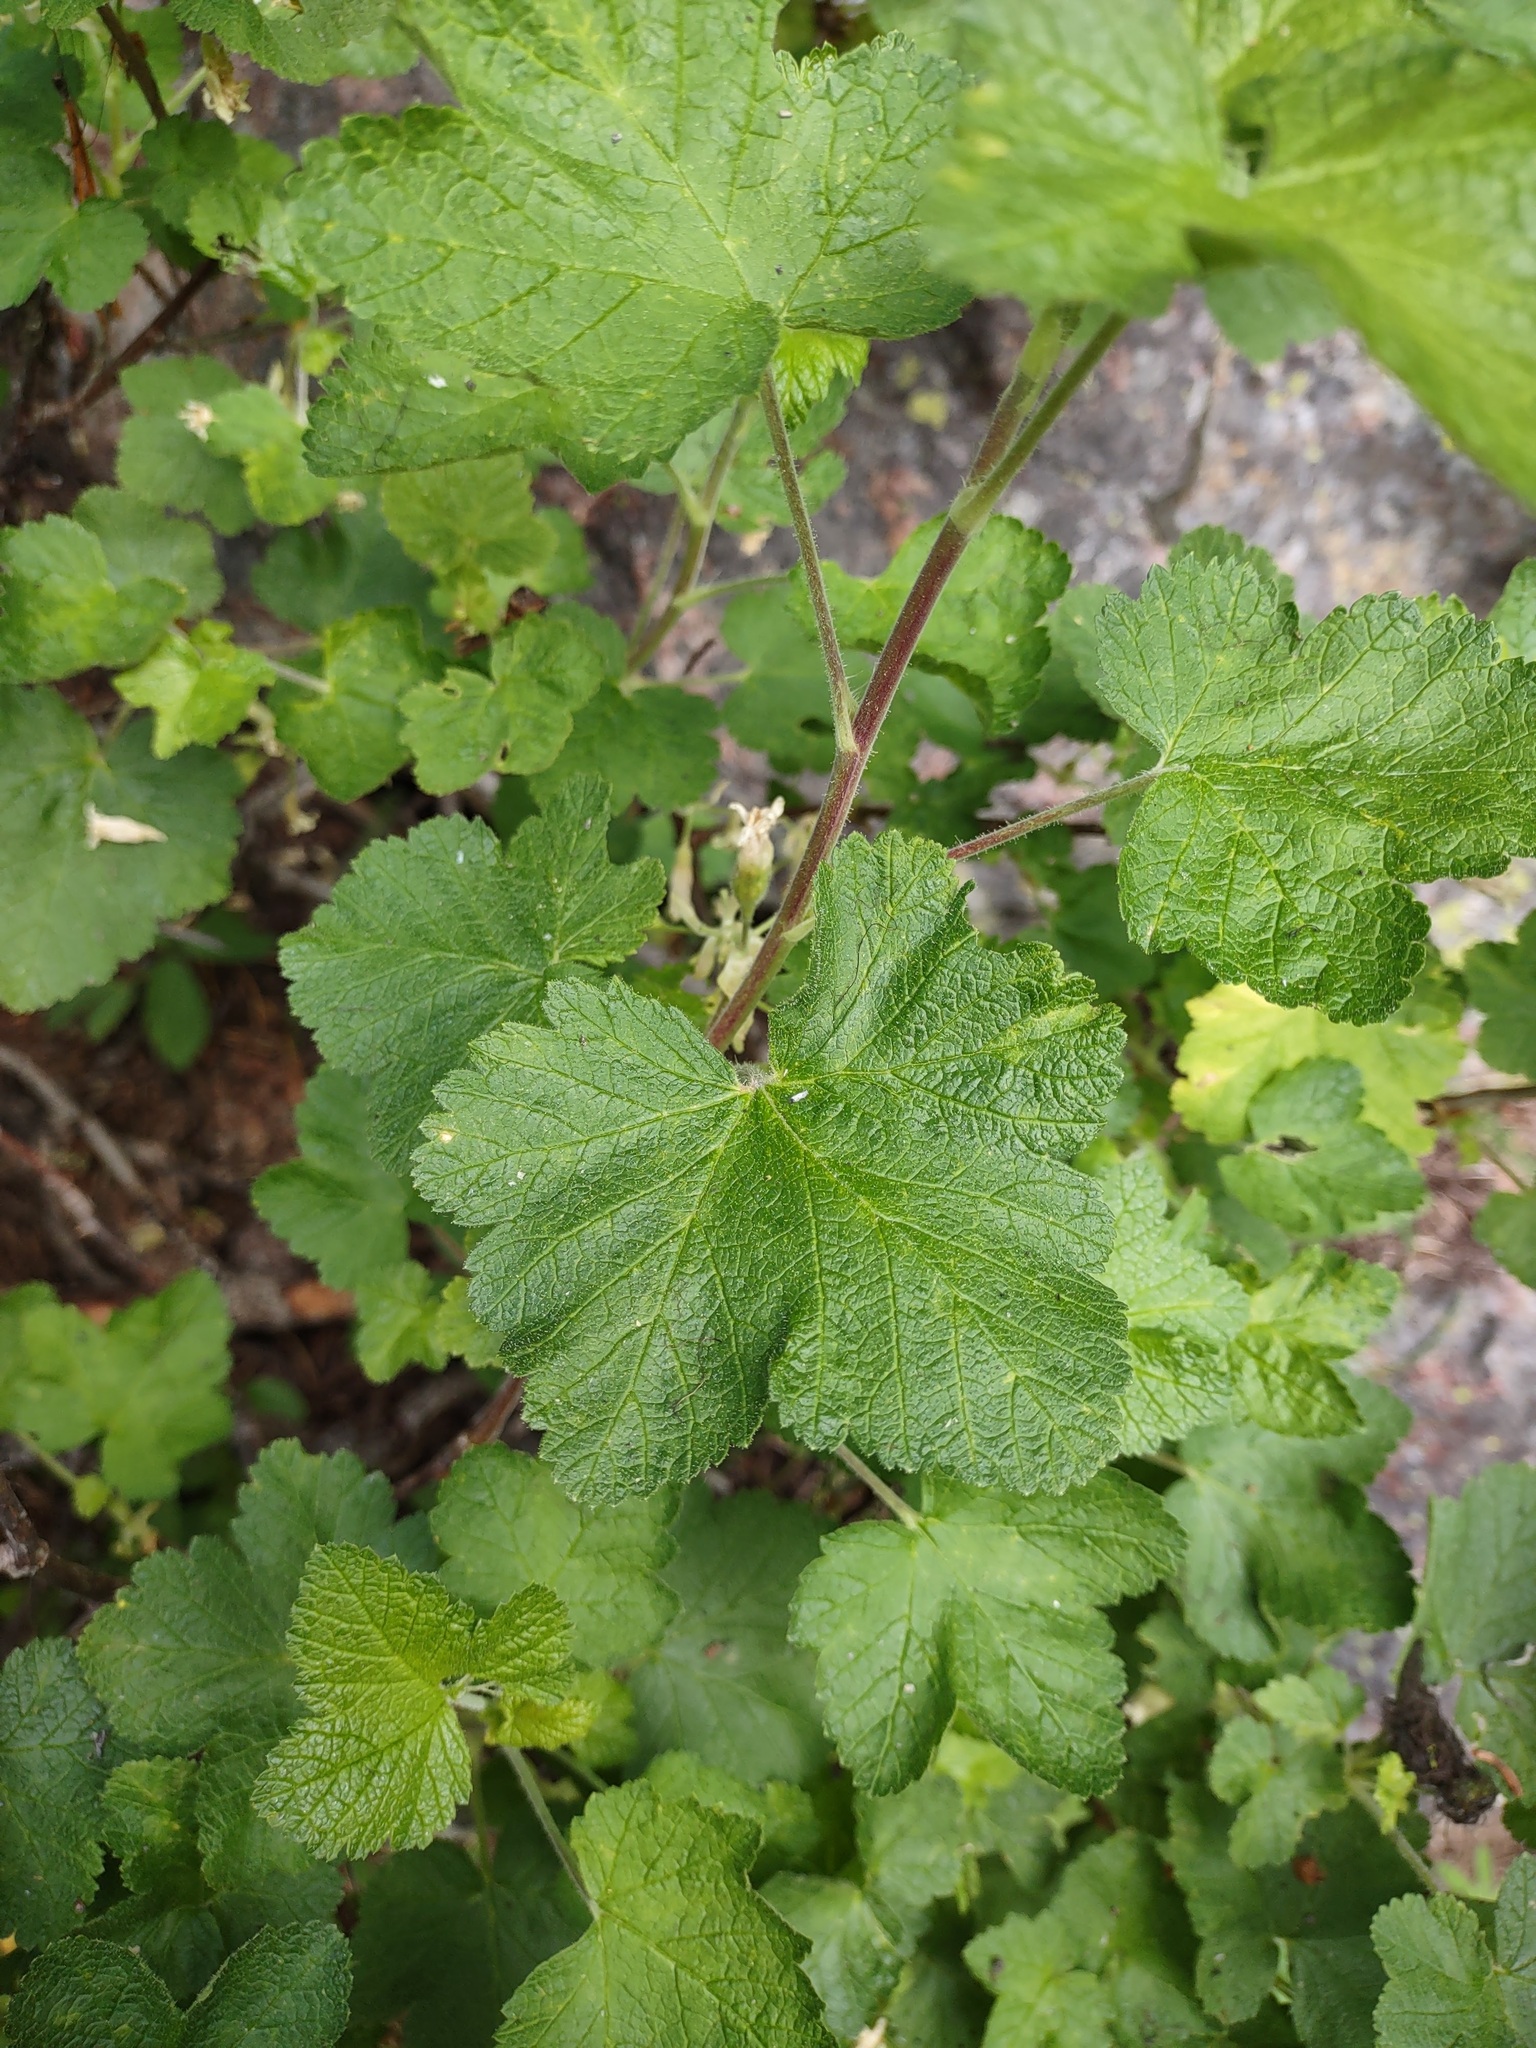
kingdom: Plantae
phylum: Tracheophyta
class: Magnoliopsida
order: Saxifragales
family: Grossulariaceae
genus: Ribes
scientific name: Ribes viscosissimum
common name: Sticky currant
